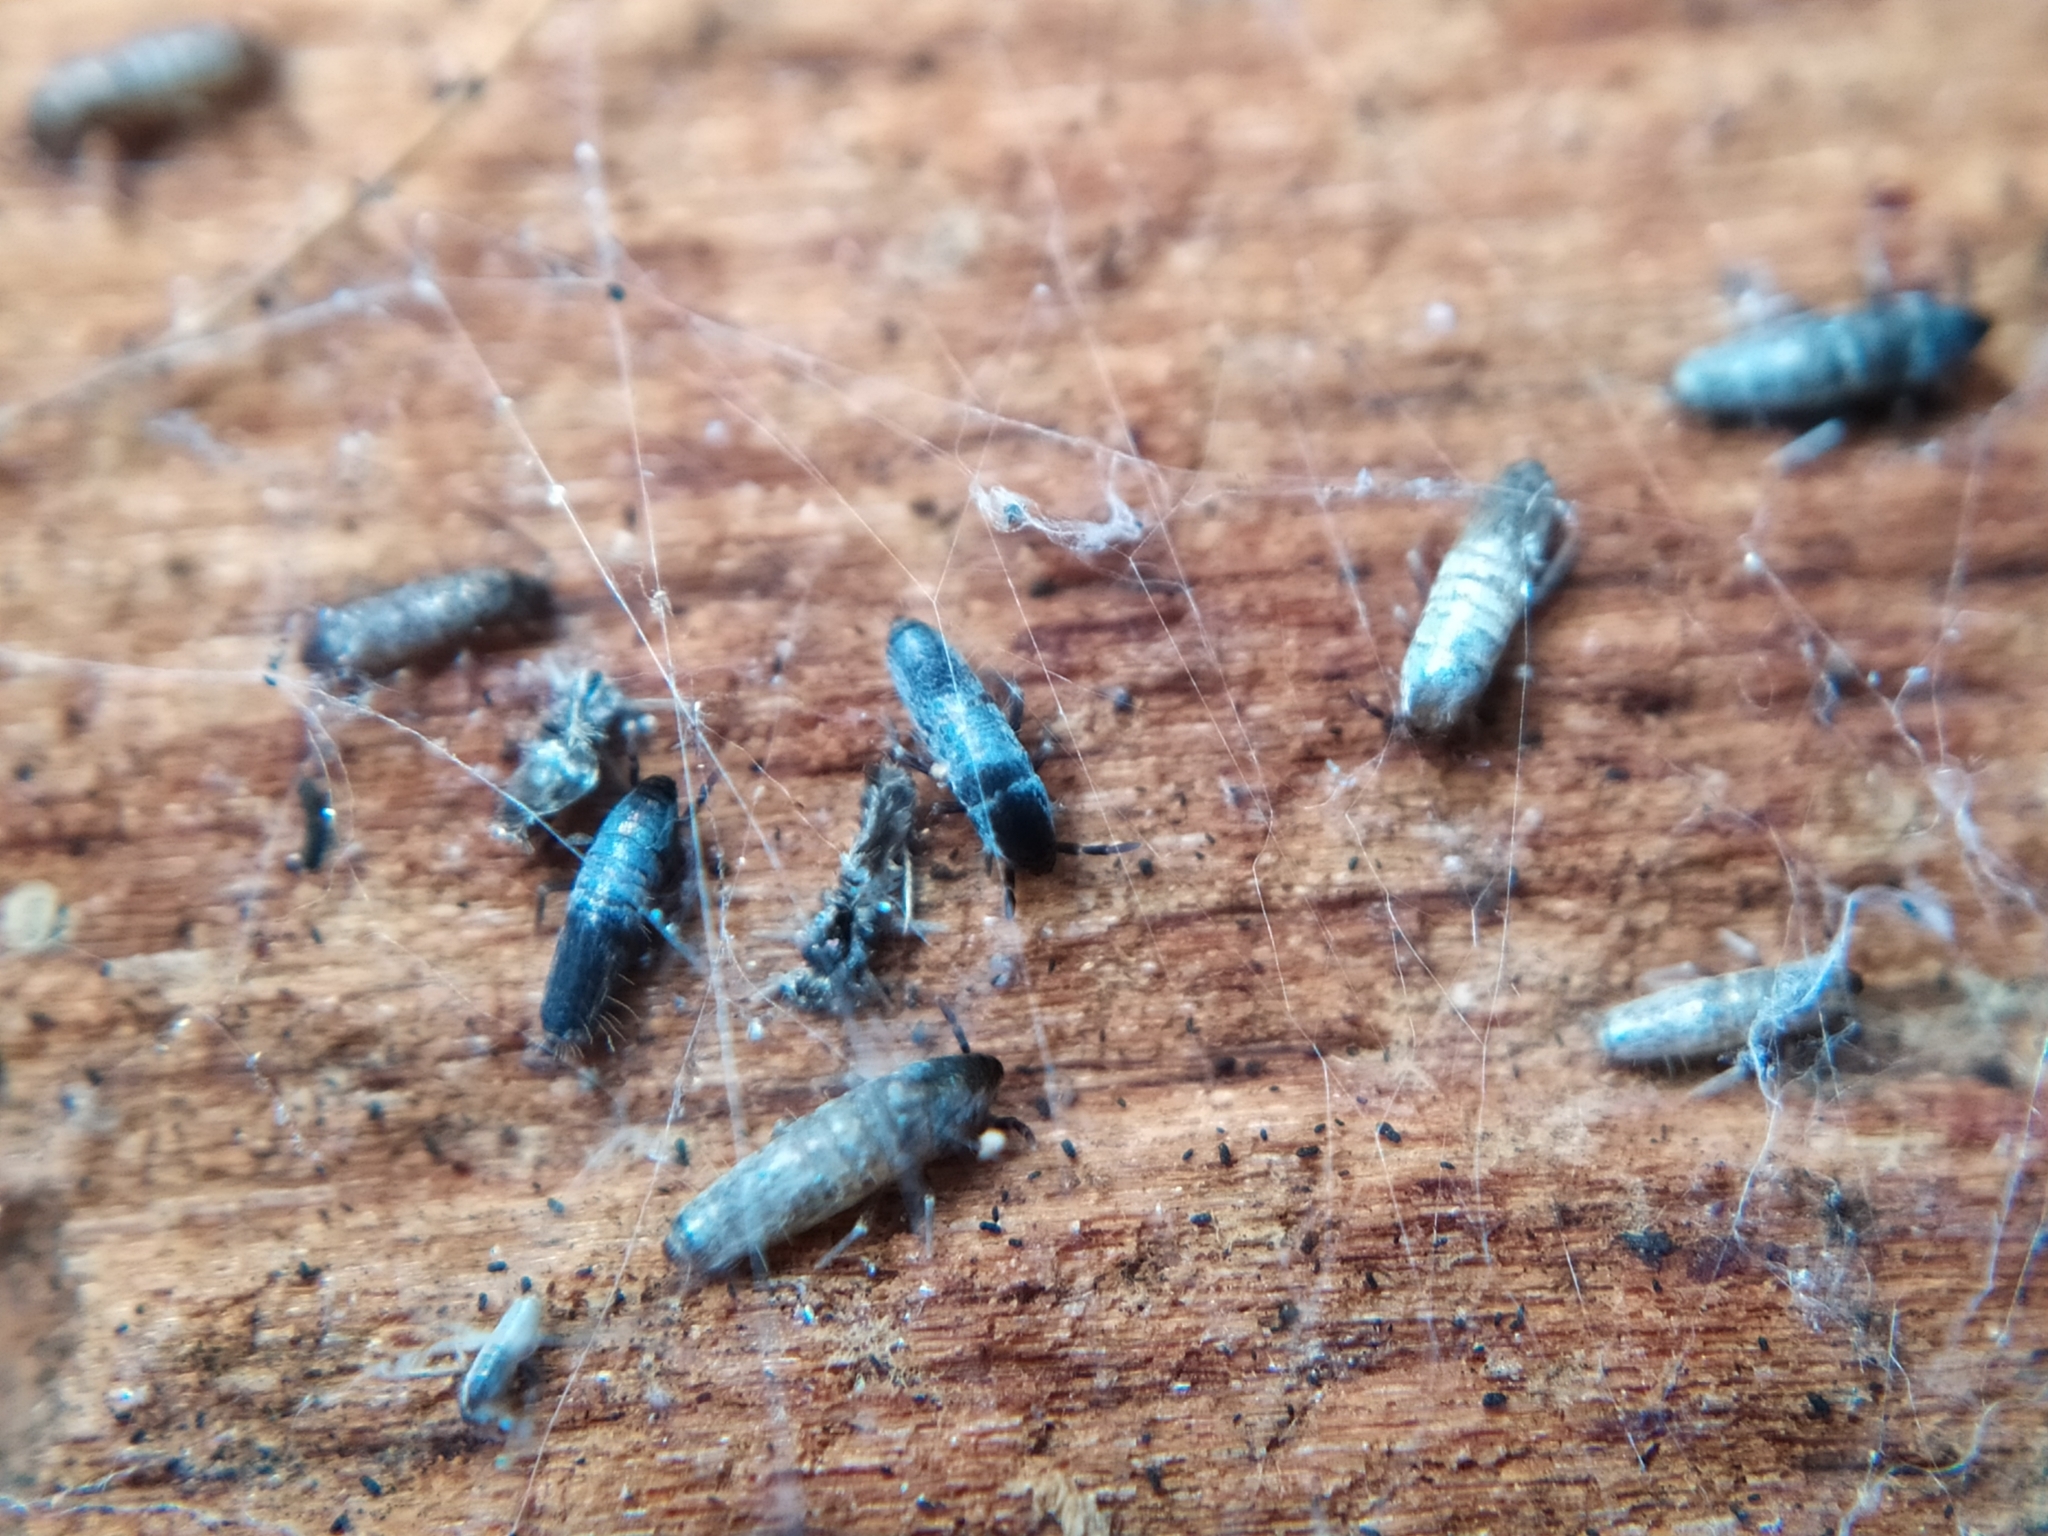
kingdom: Animalia
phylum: Arthropoda
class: Collembola
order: Entomobryomorpha
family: Entomobryidae
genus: Lepidocyrtus
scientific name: Lepidocyrtus paradoxus
